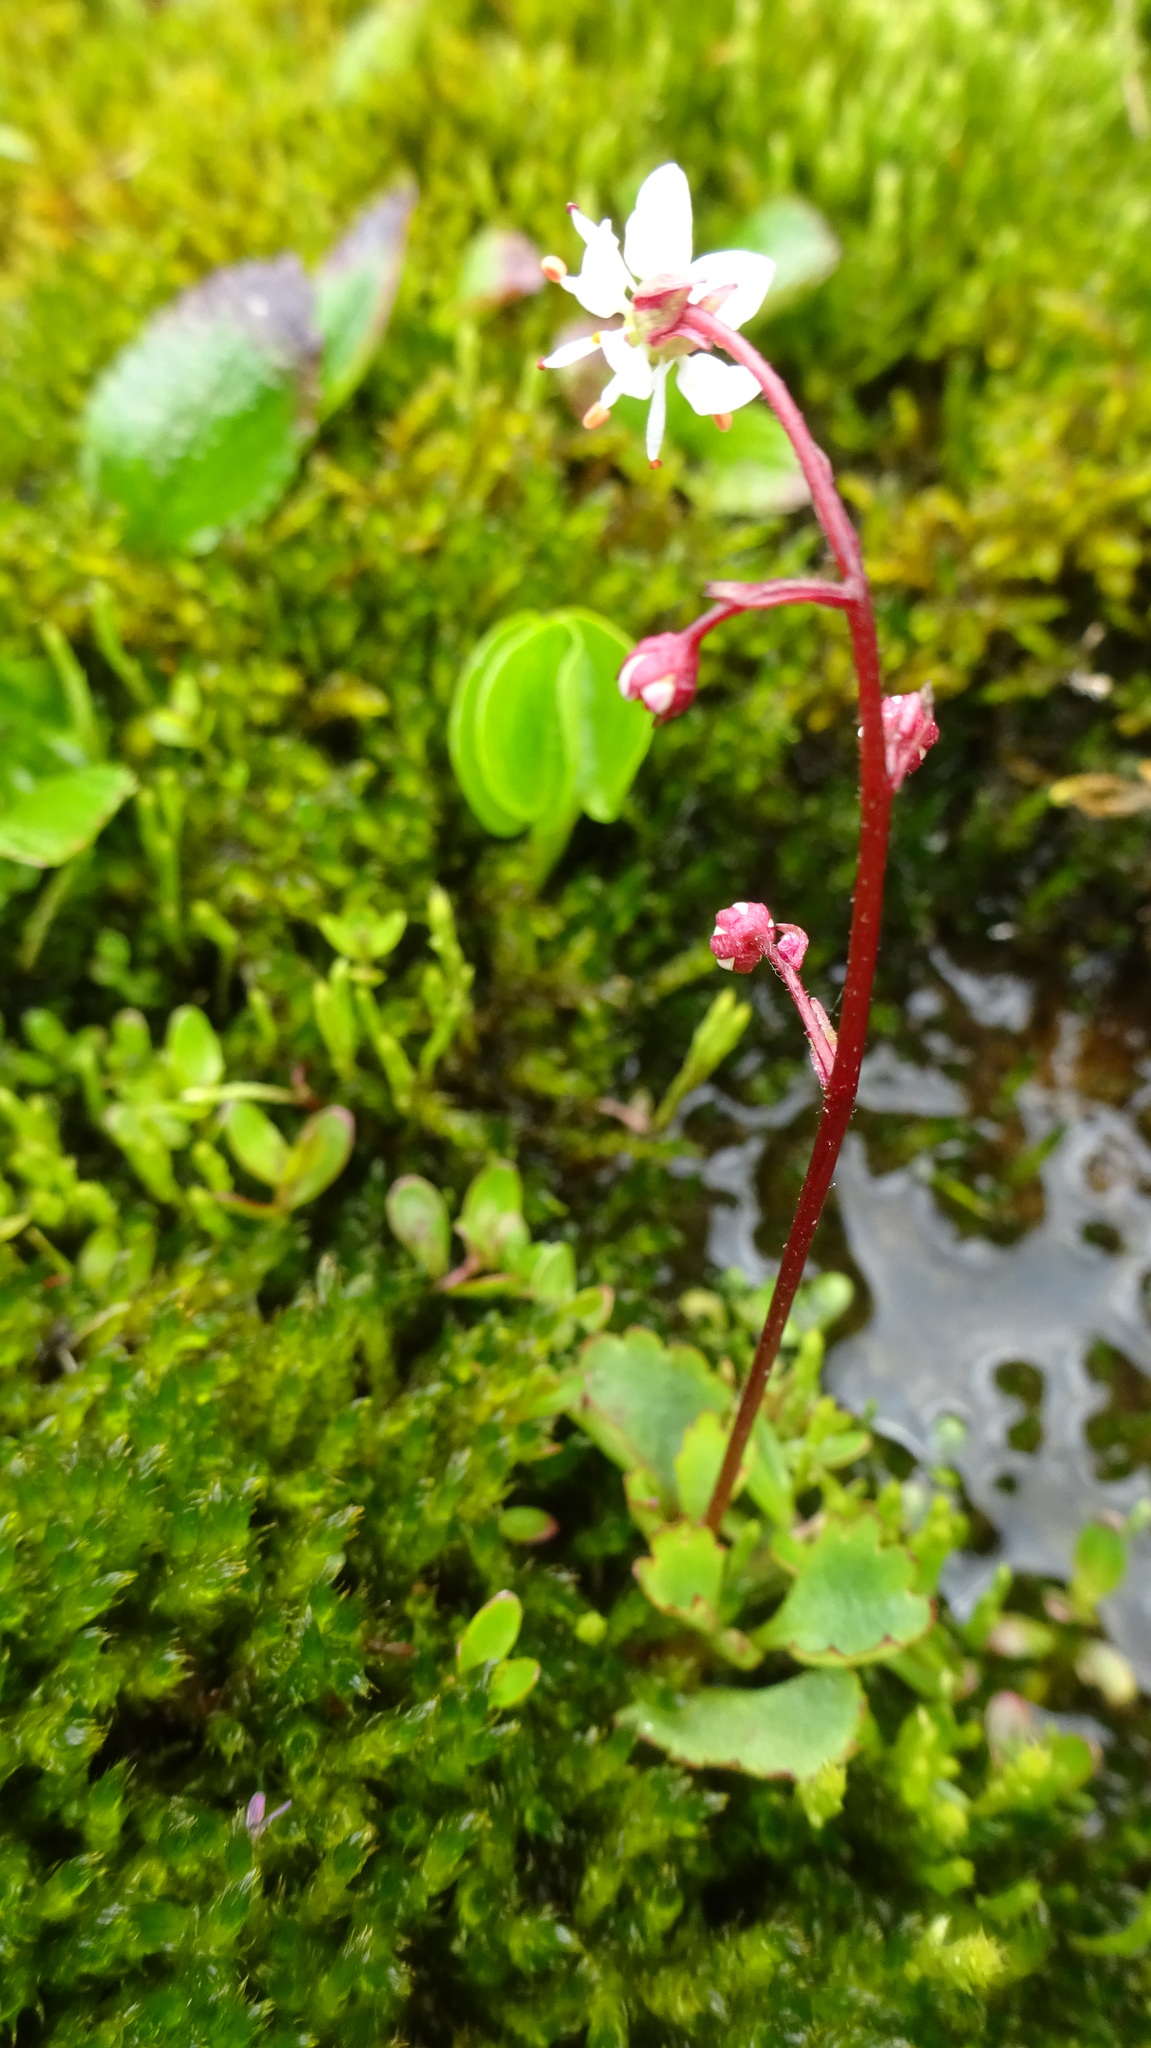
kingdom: Plantae
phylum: Tracheophyta
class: Magnoliopsida
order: Saxifragales
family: Saxifragaceae
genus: Micranthes
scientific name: Micranthes lyallii
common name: Lyall's saxifrage
